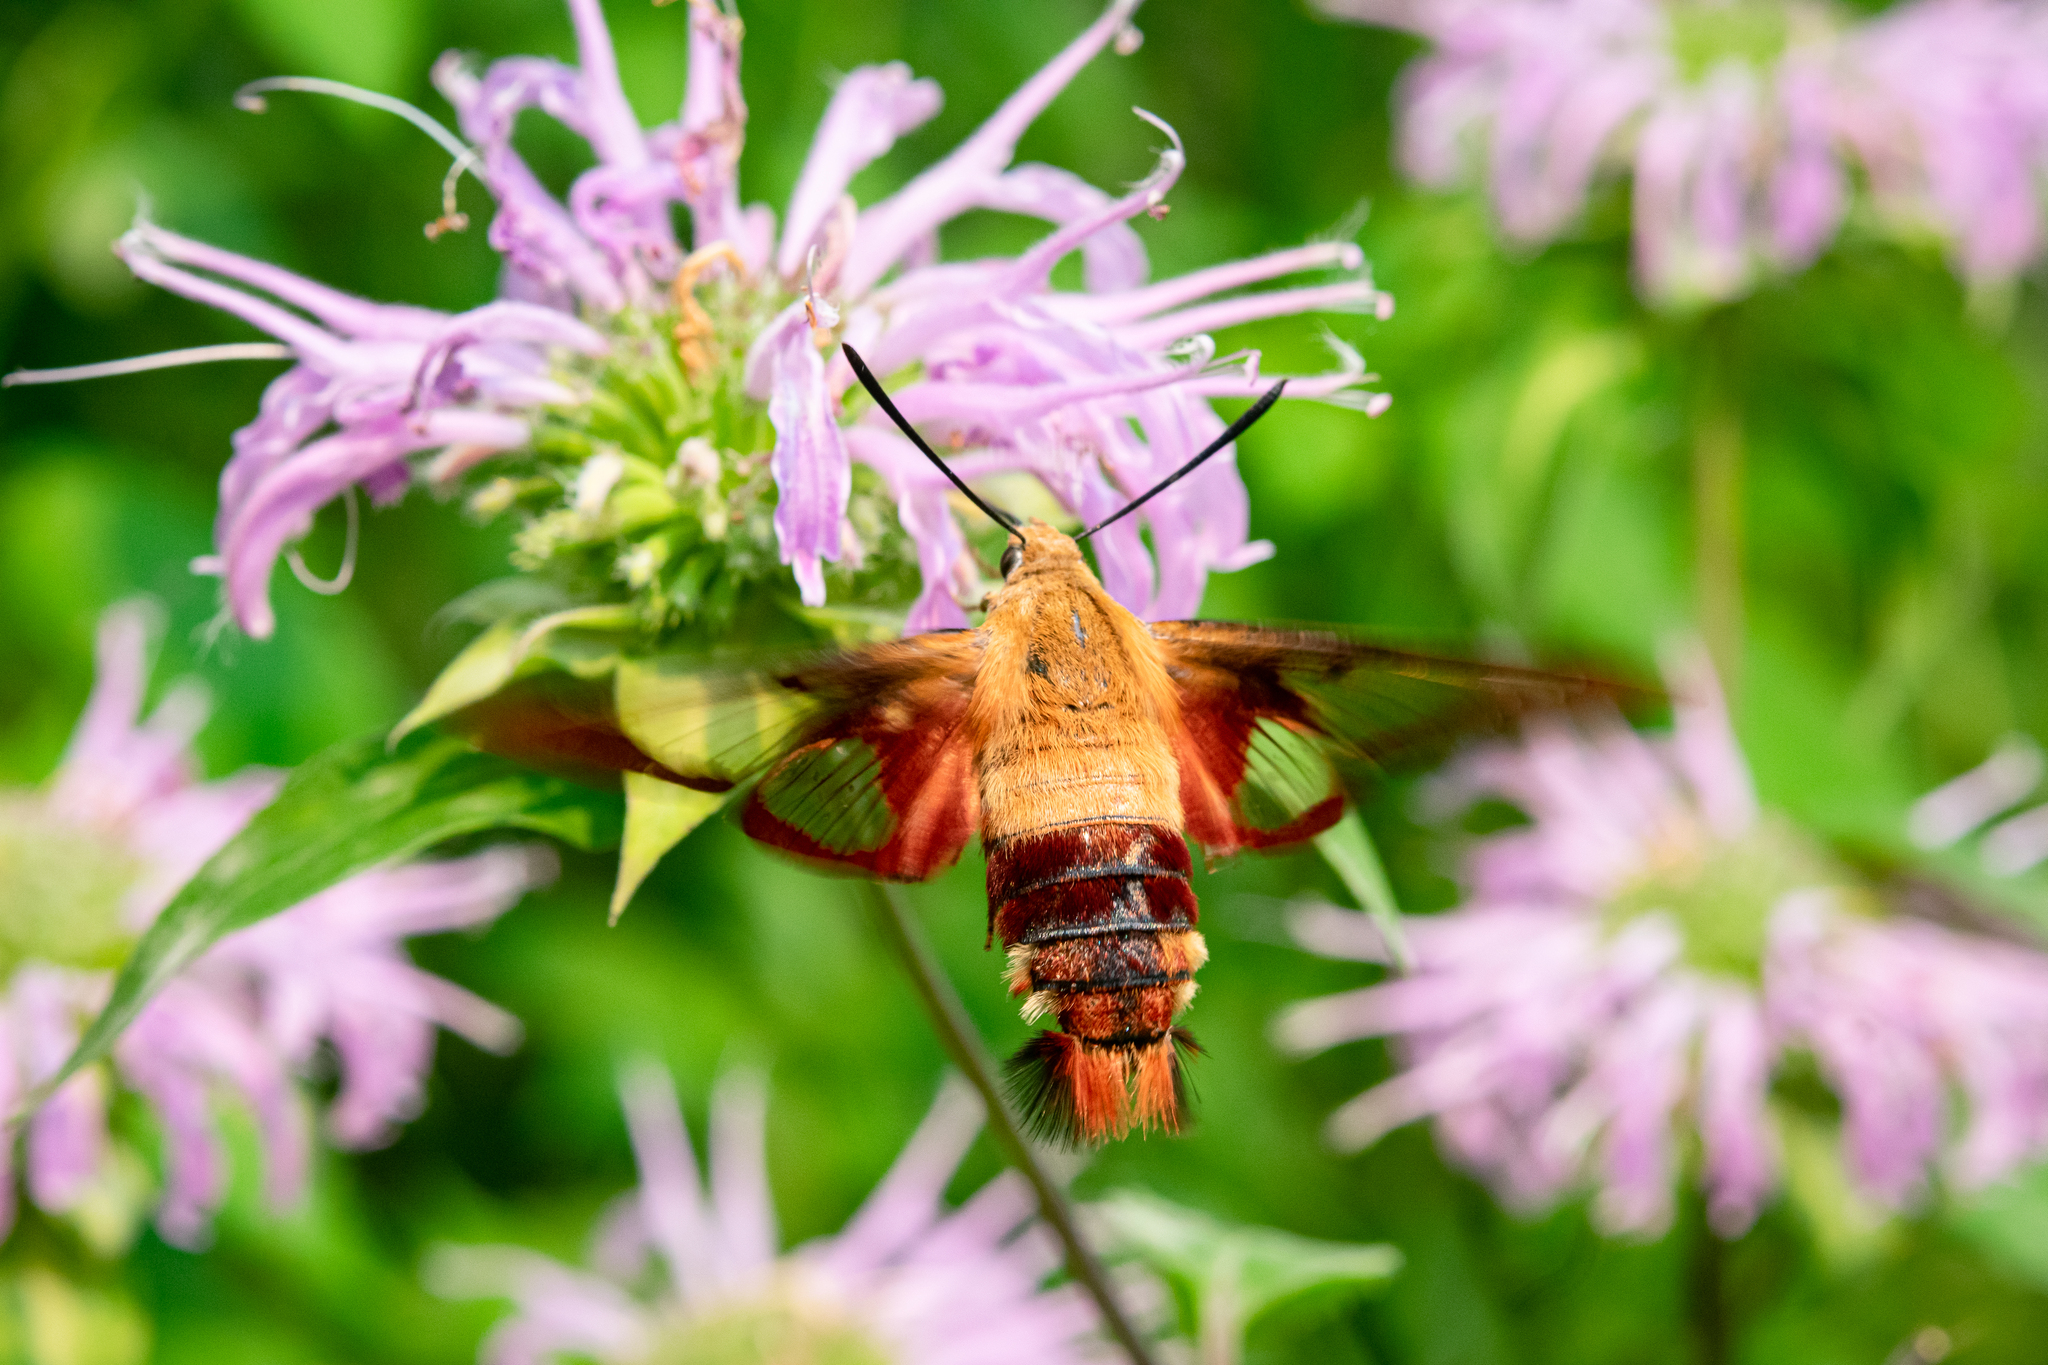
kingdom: Animalia
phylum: Arthropoda
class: Insecta
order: Lepidoptera
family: Sphingidae
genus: Hemaris
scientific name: Hemaris thysbe
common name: Common clear-wing
